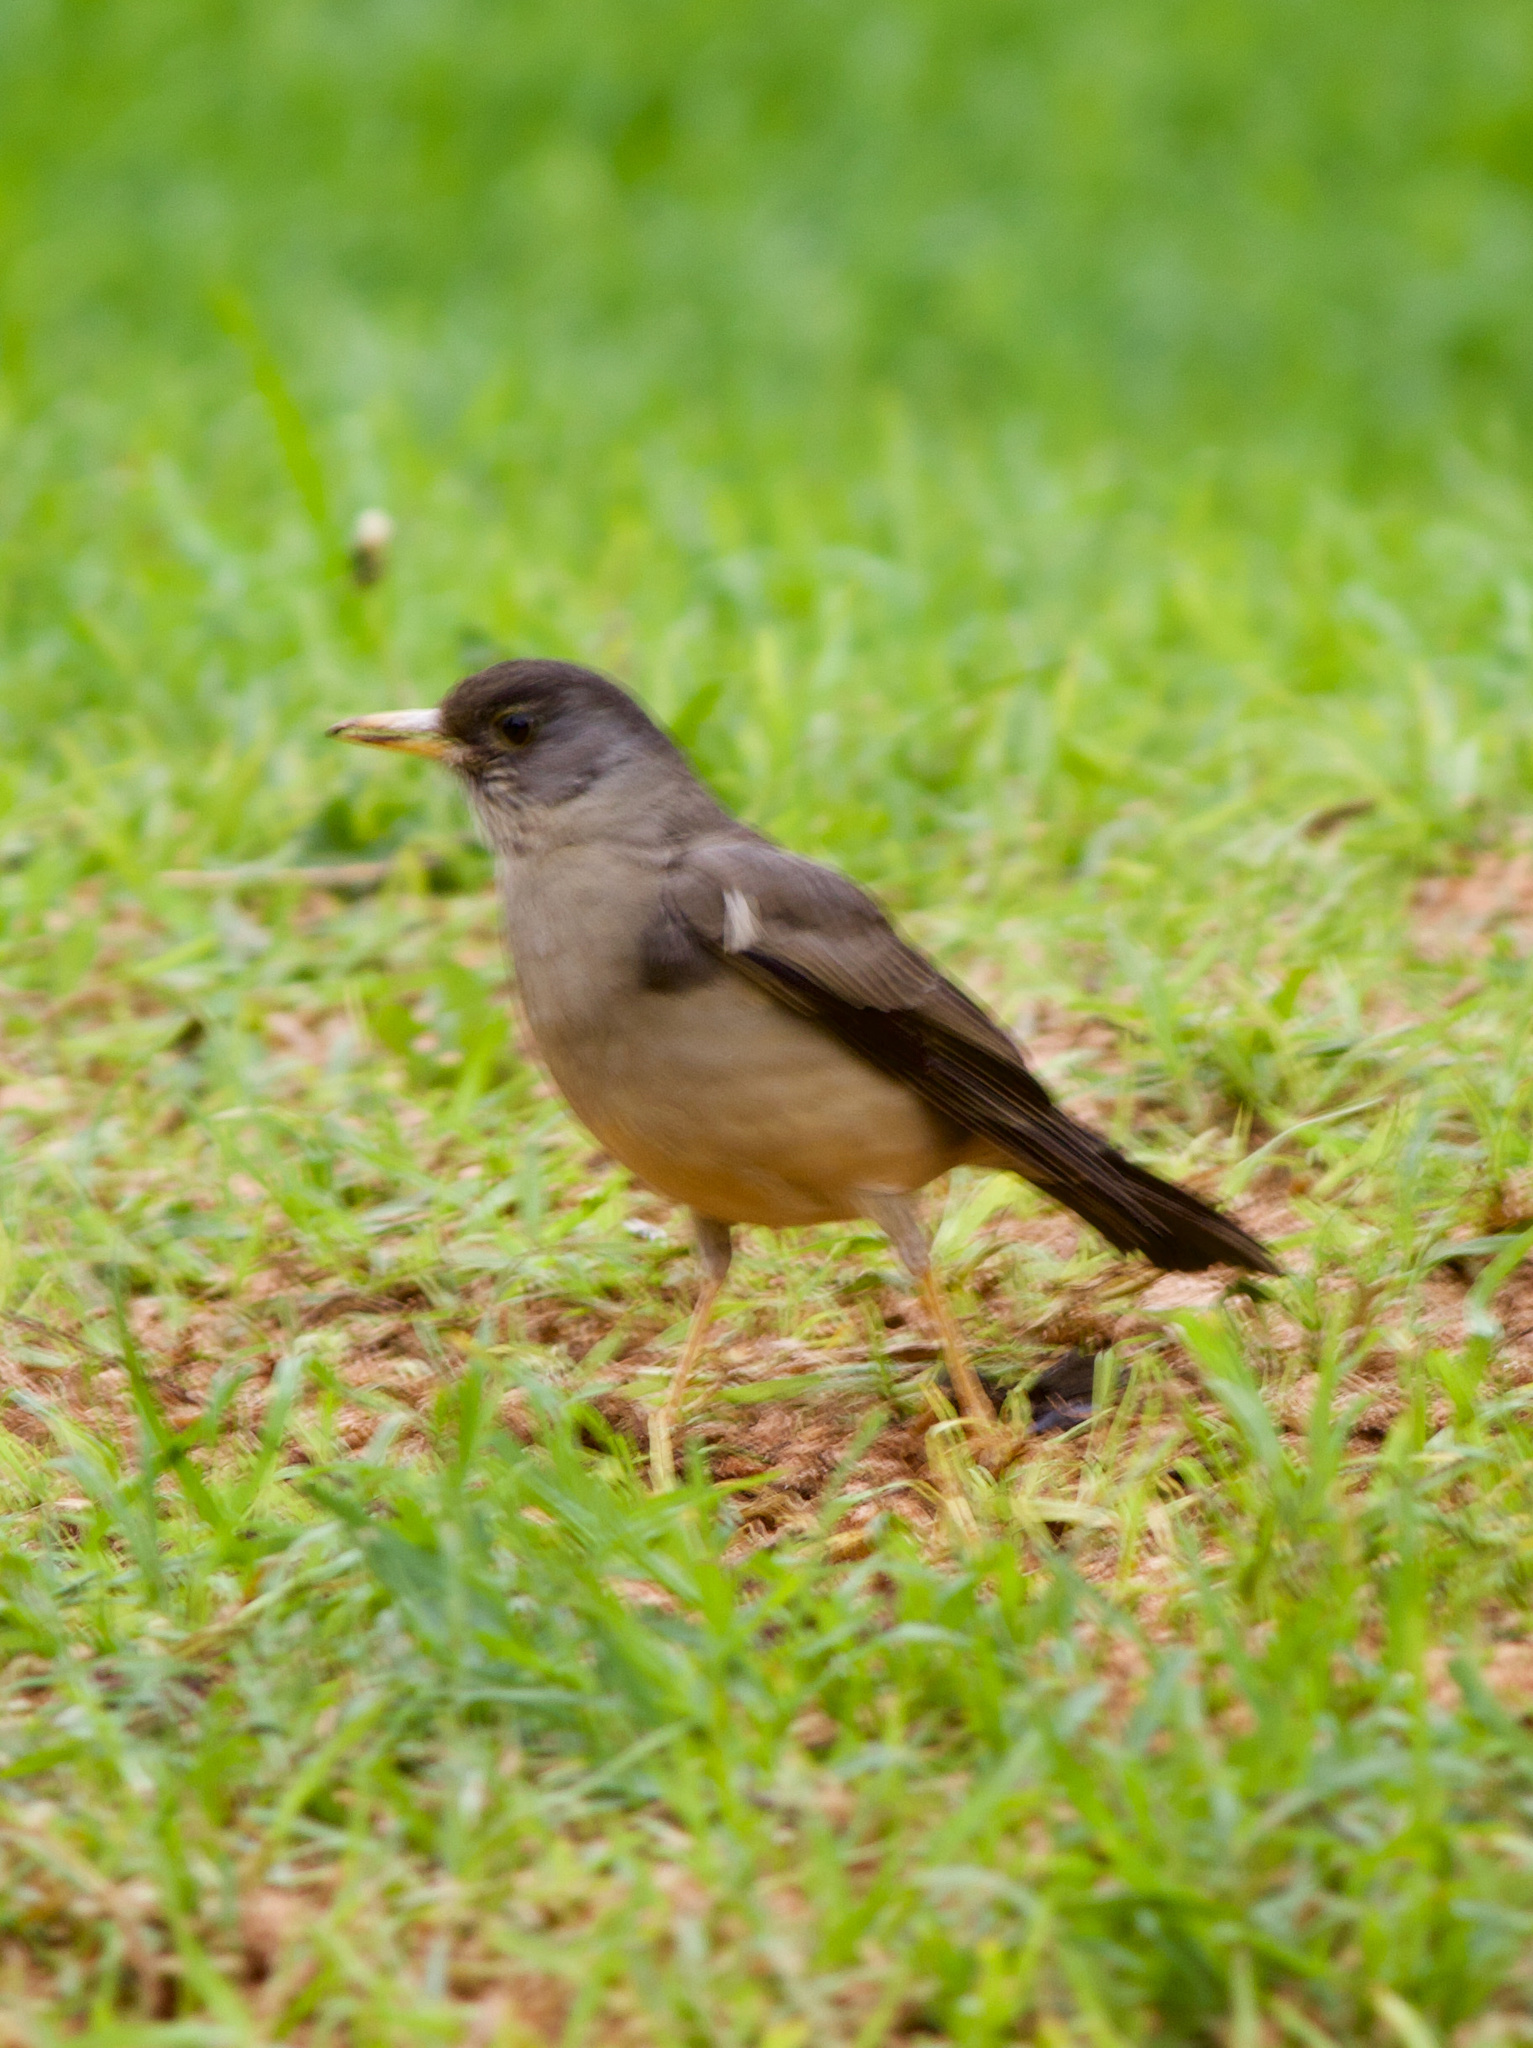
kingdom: Animalia
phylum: Chordata
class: Aves
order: Passeriformes
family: Turdidae
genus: Turdus
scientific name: Turdus falcklandii
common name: Austral thrush
